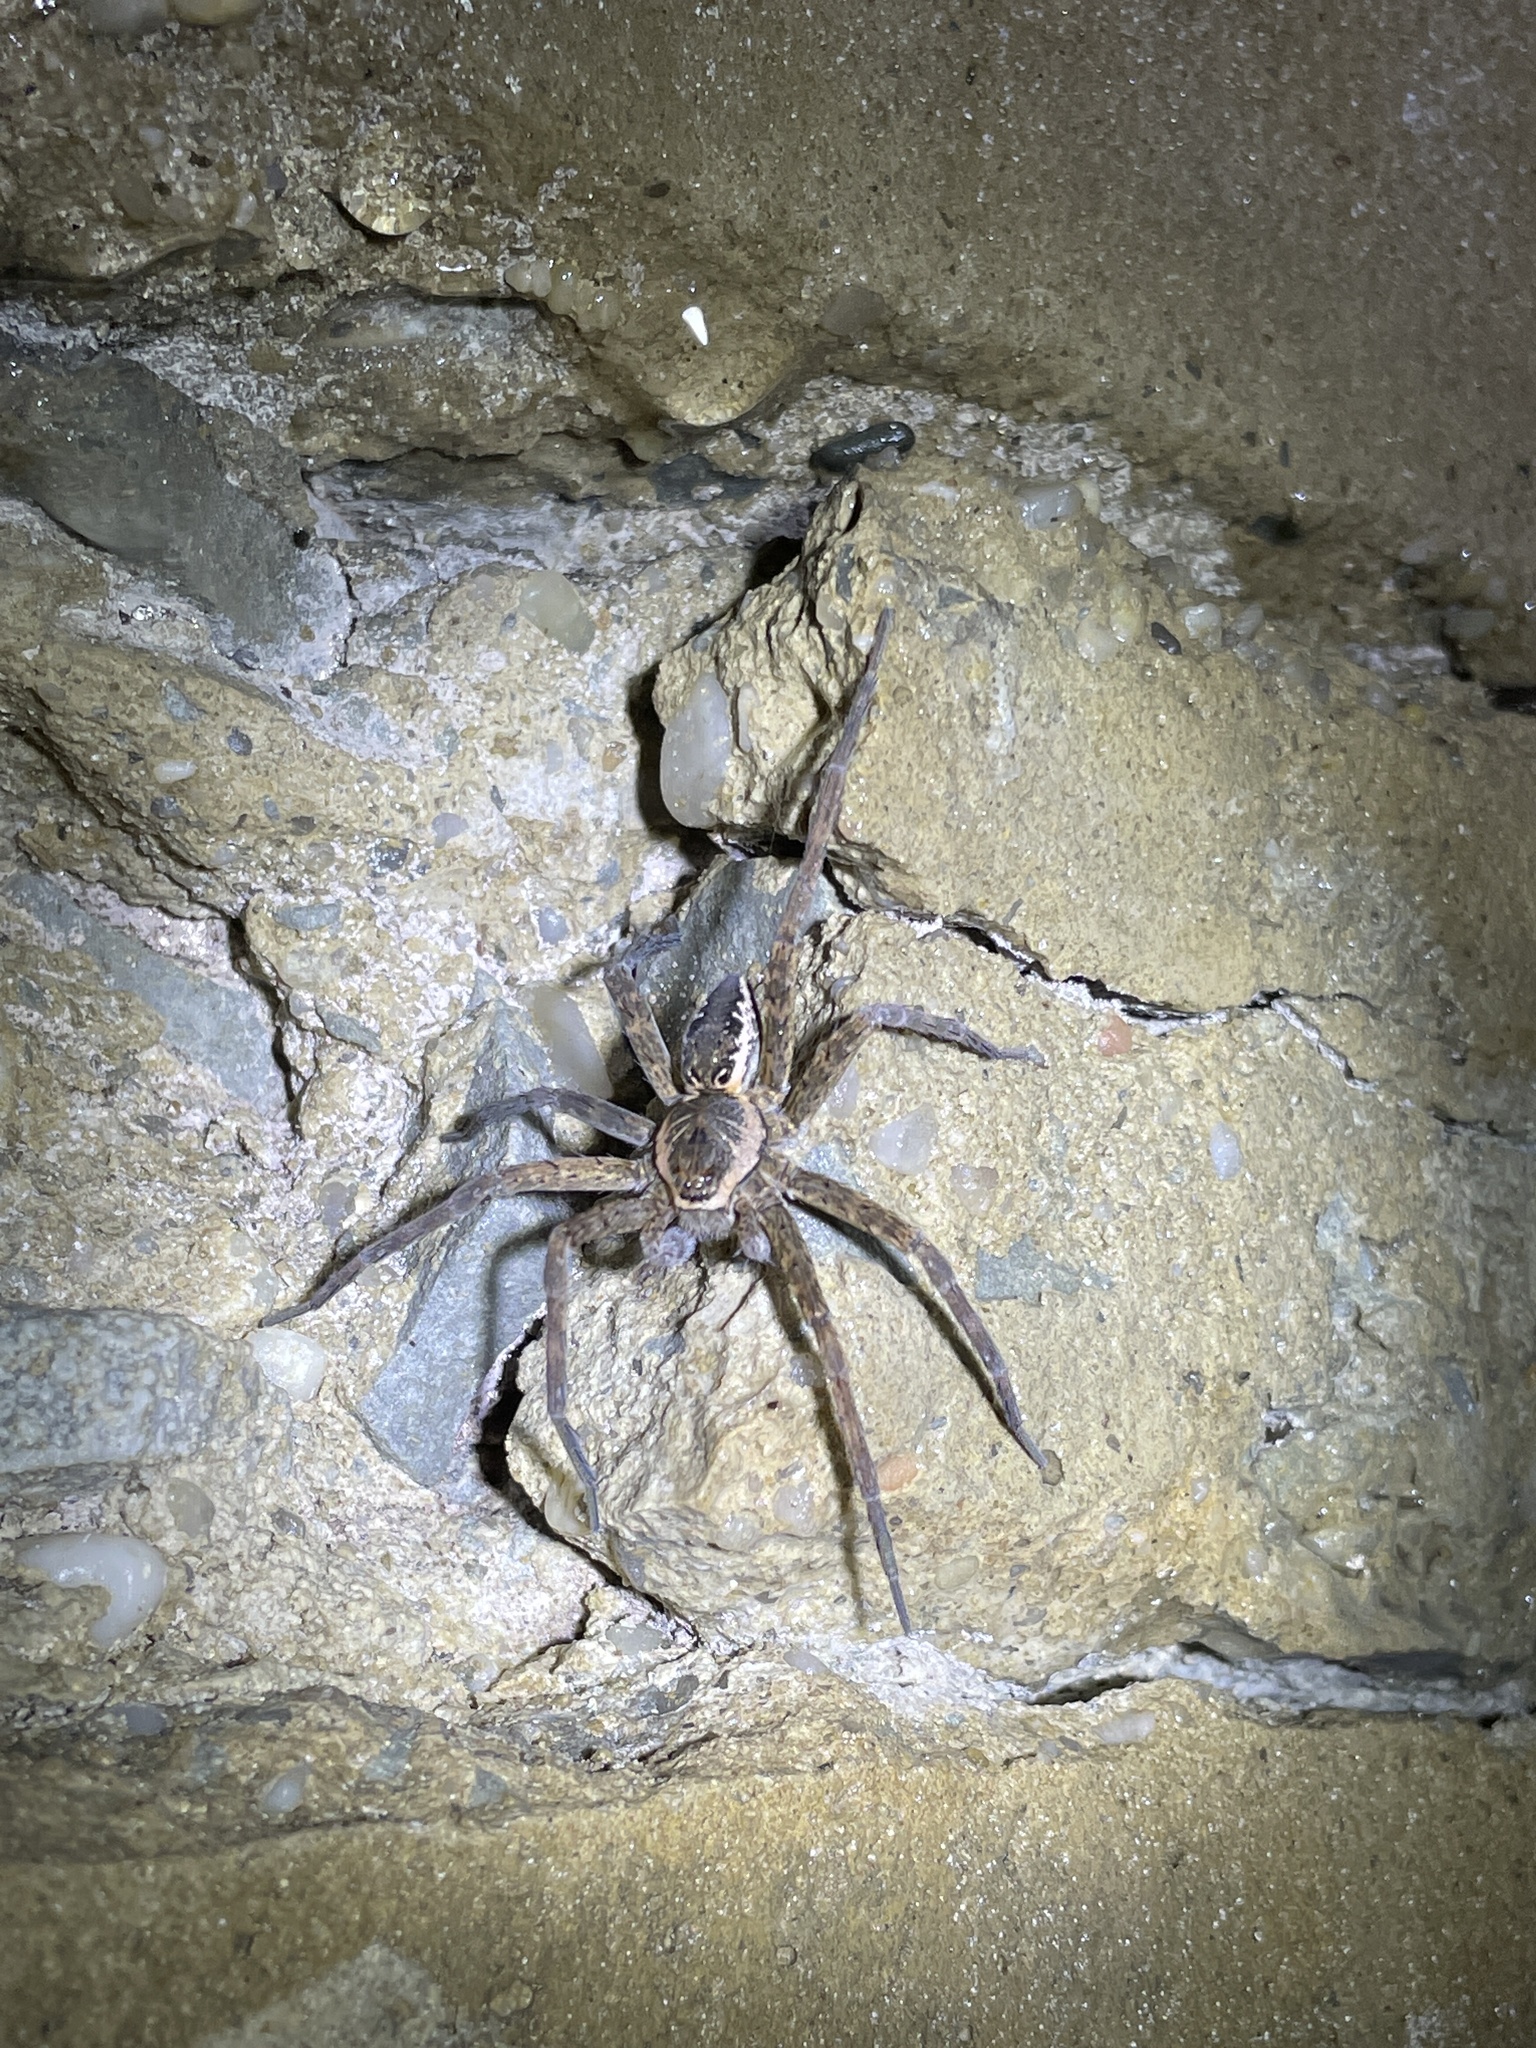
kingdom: Animalia
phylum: Arthropoda
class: Arachnida
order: Araneae
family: Pisauridae
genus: Dolomedes
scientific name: Dolomedes vittatus
